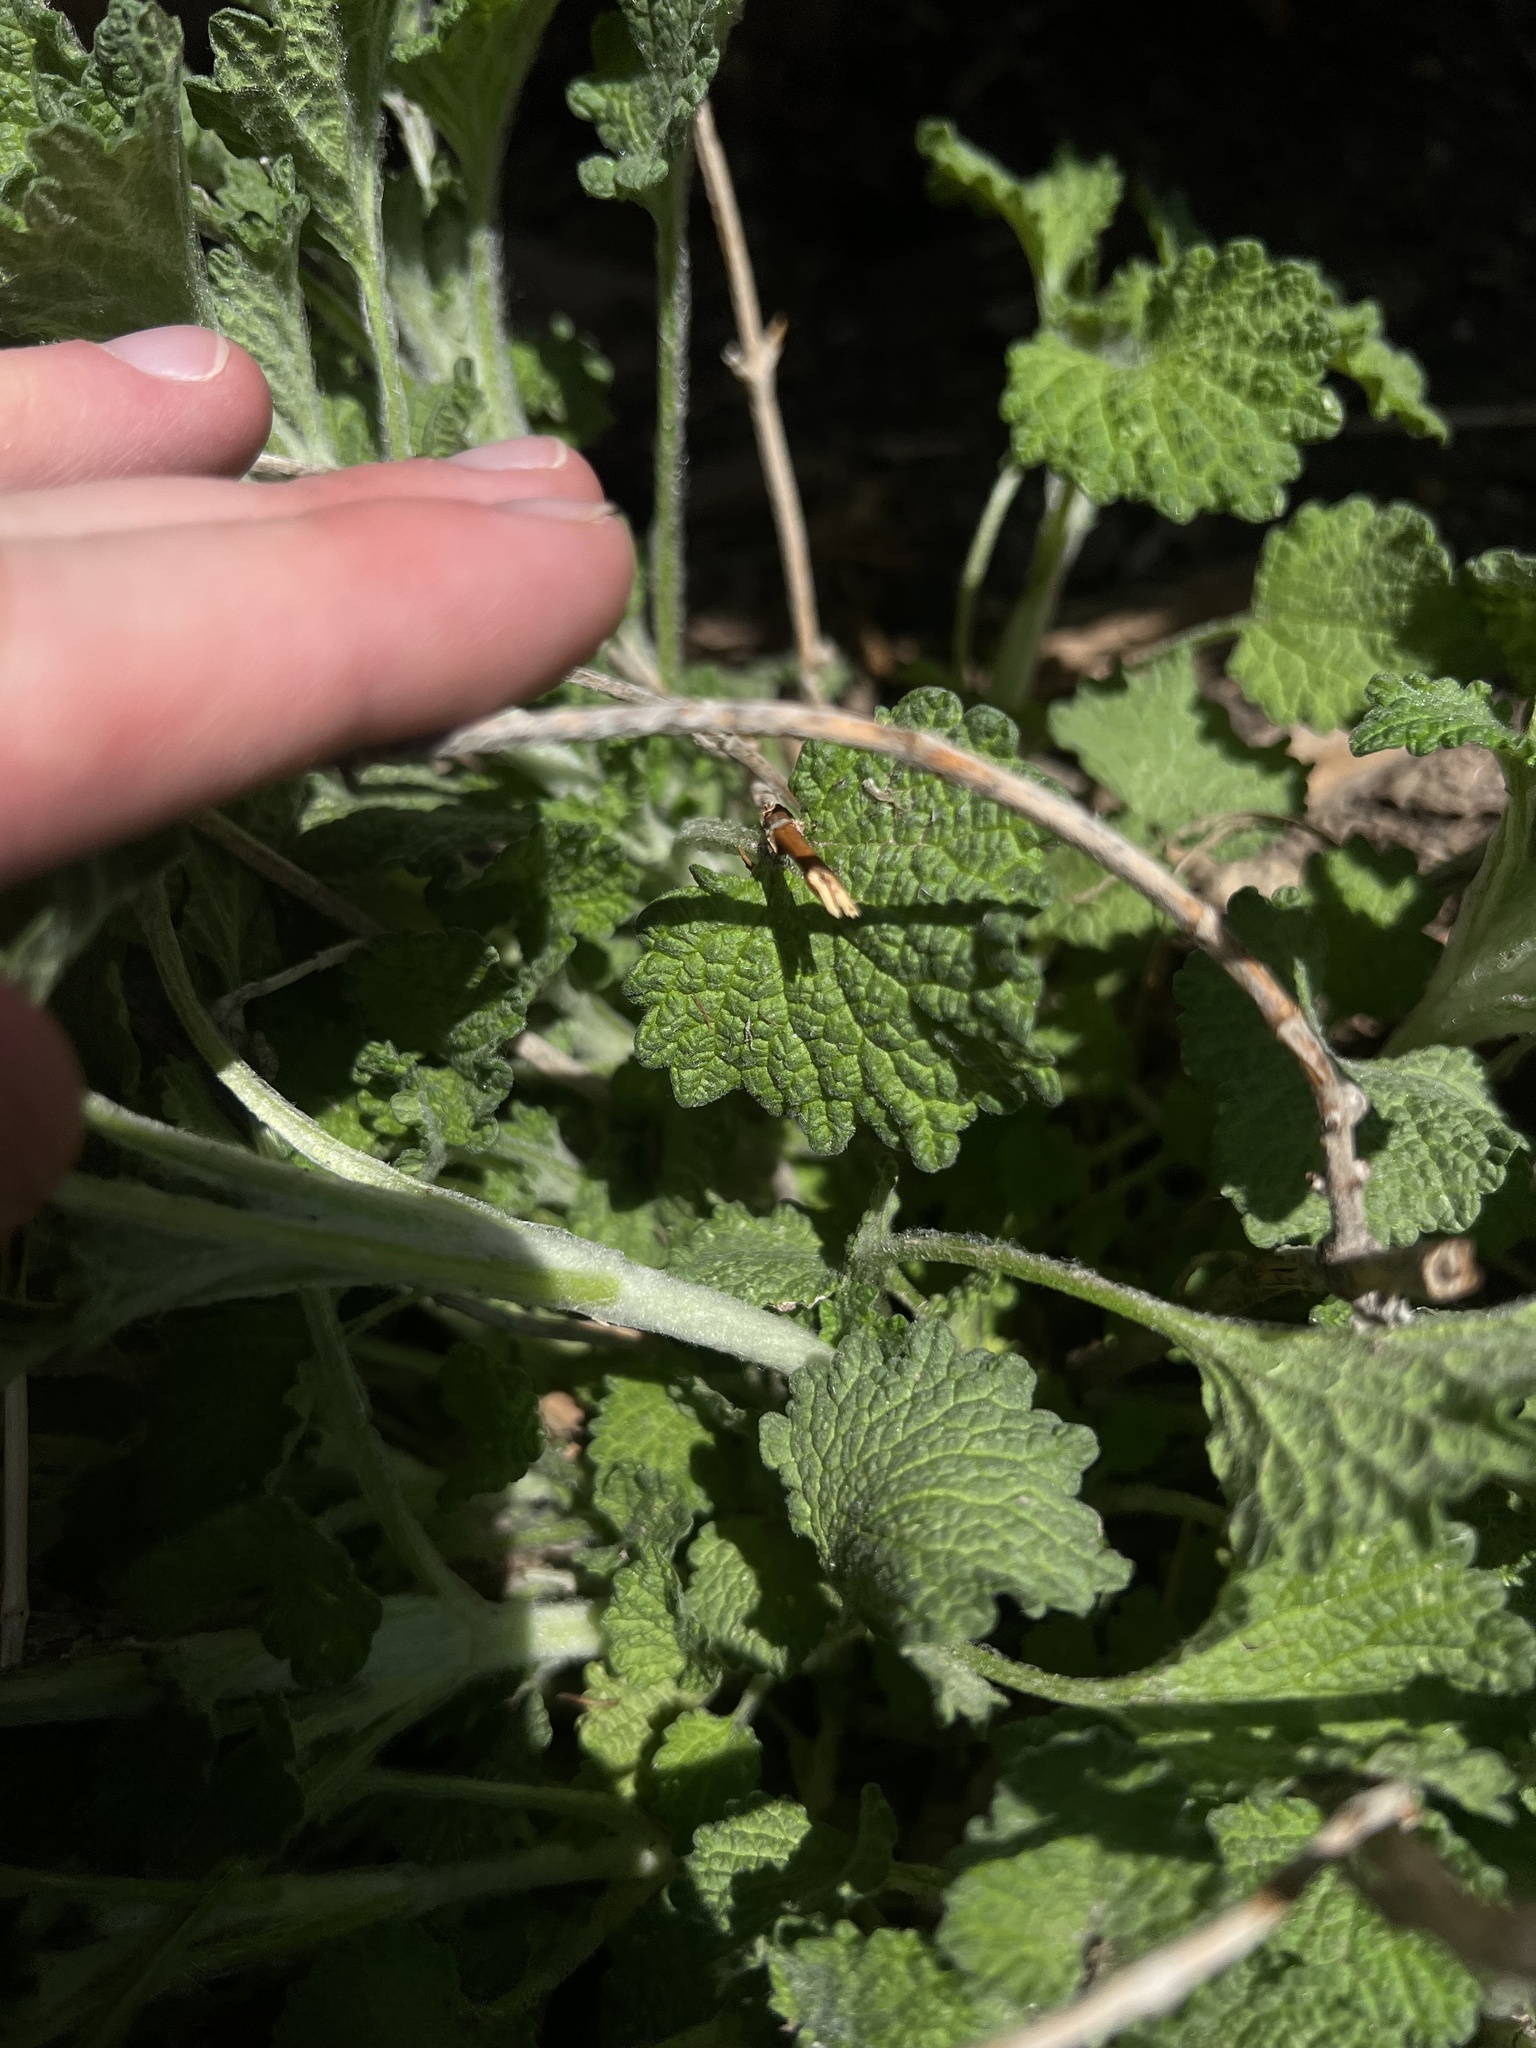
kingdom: Plantae
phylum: Tracheophyta
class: Magnoliopsida
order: Lamiales
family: Lamiaceae
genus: Marrubium
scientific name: Marrubium vulgare
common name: Horehound
